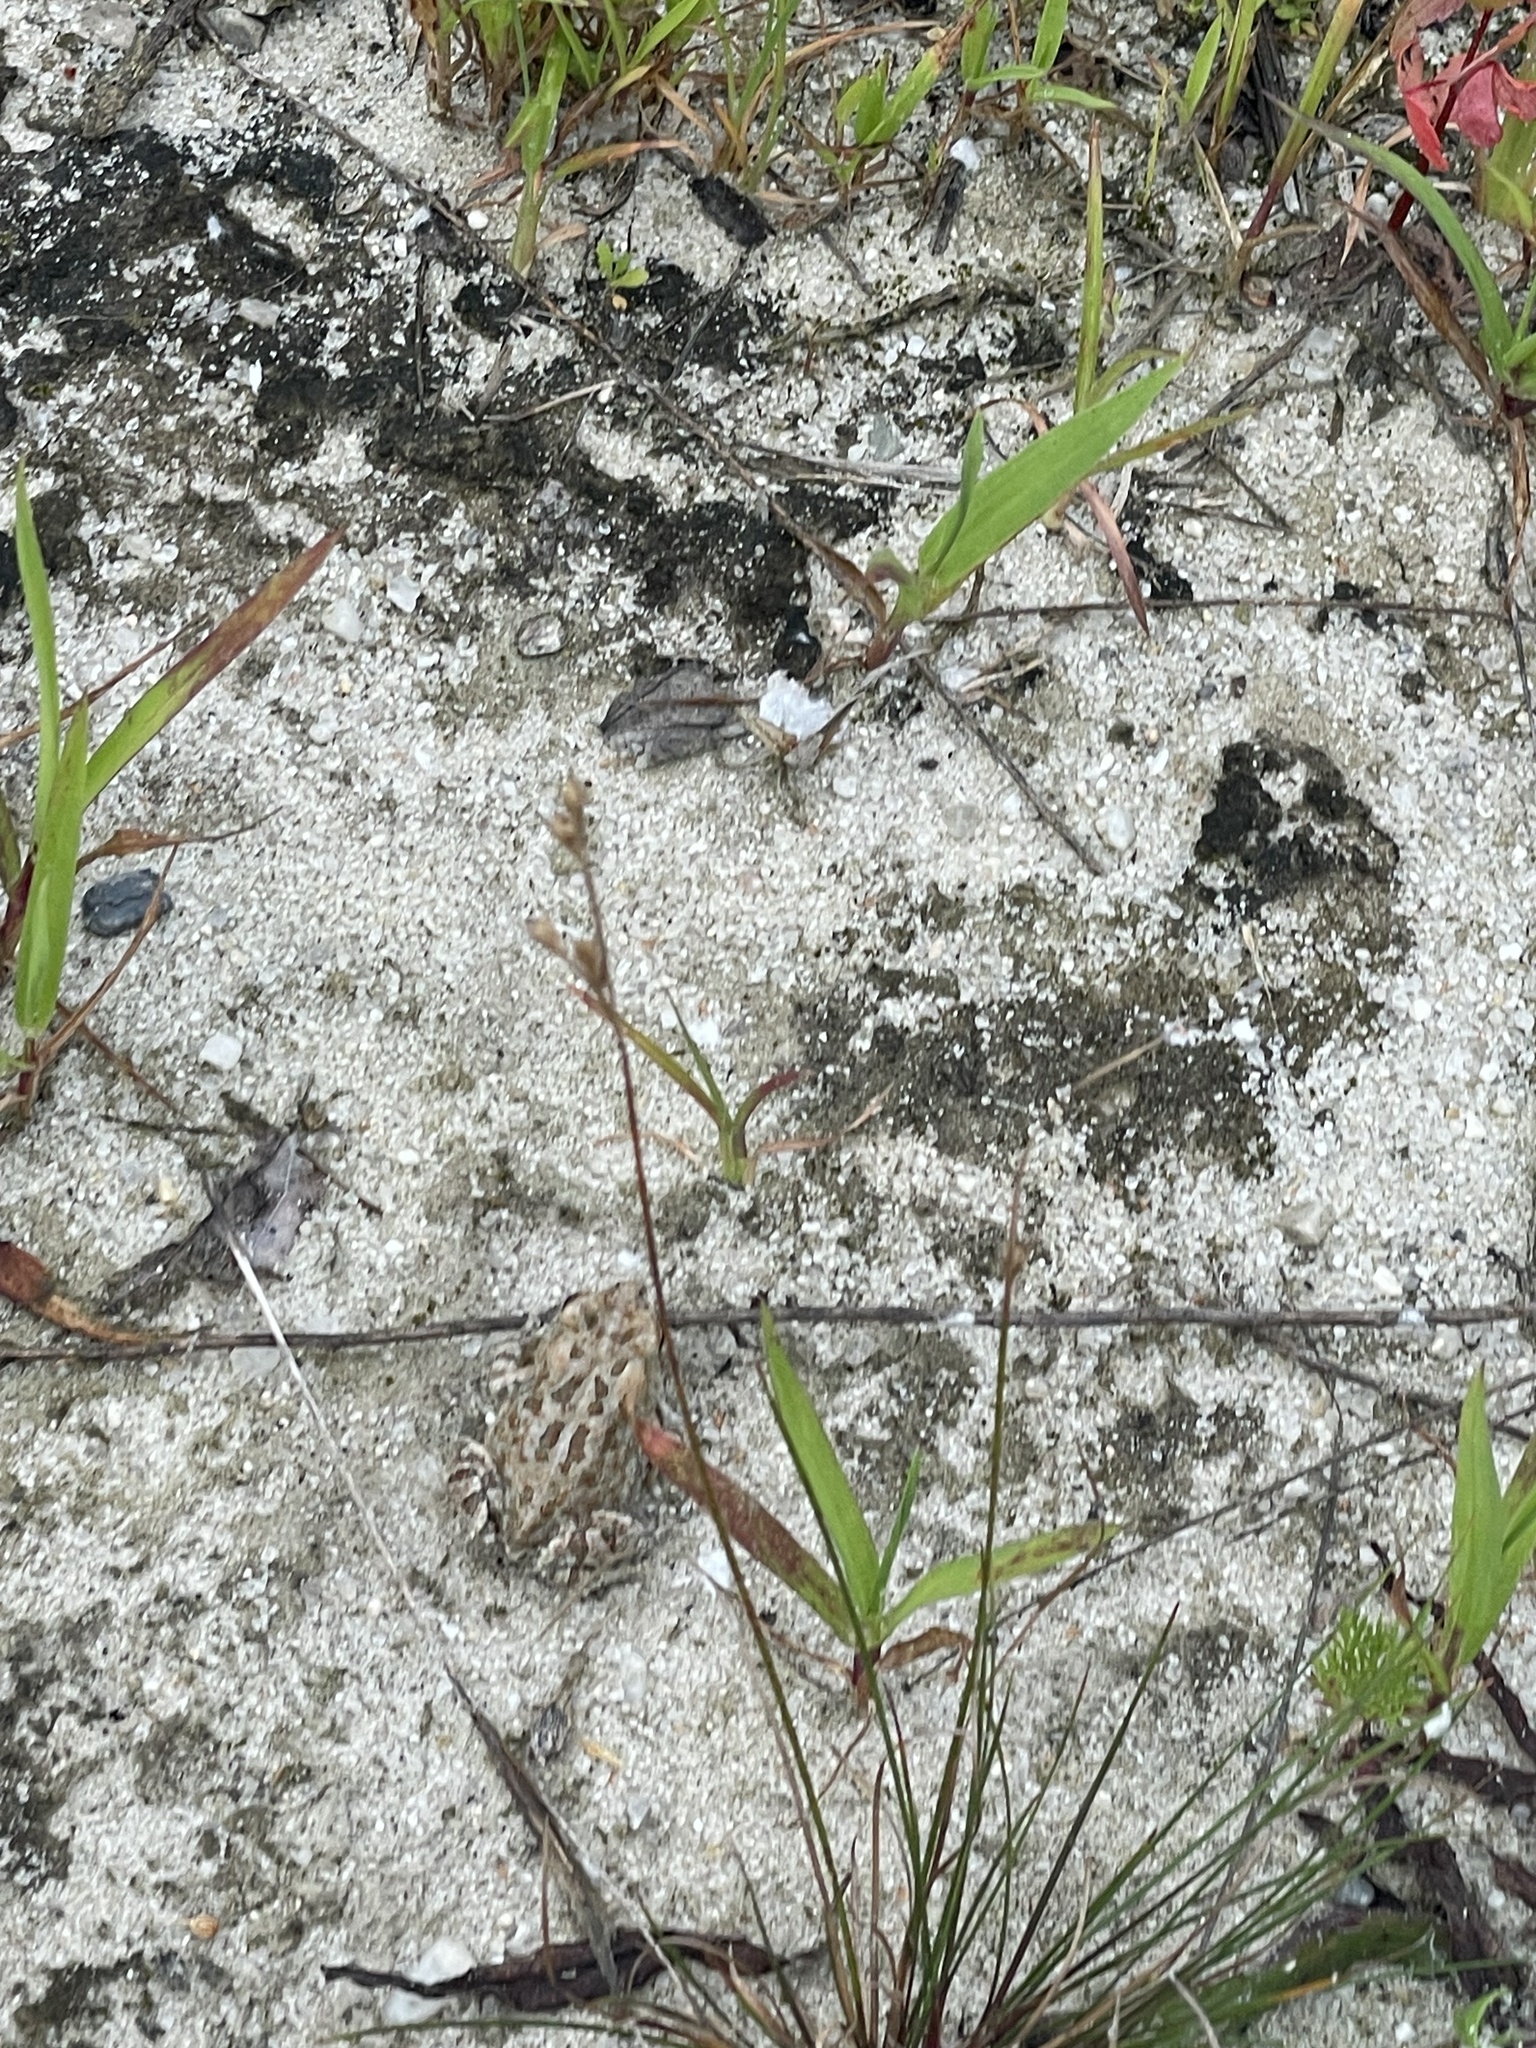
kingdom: Animalia
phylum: Chordata
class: Amphibia
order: Anura
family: Bufonidae
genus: Anaxyrus
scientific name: Anaxyrus fowleri
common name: Fowler's toad
